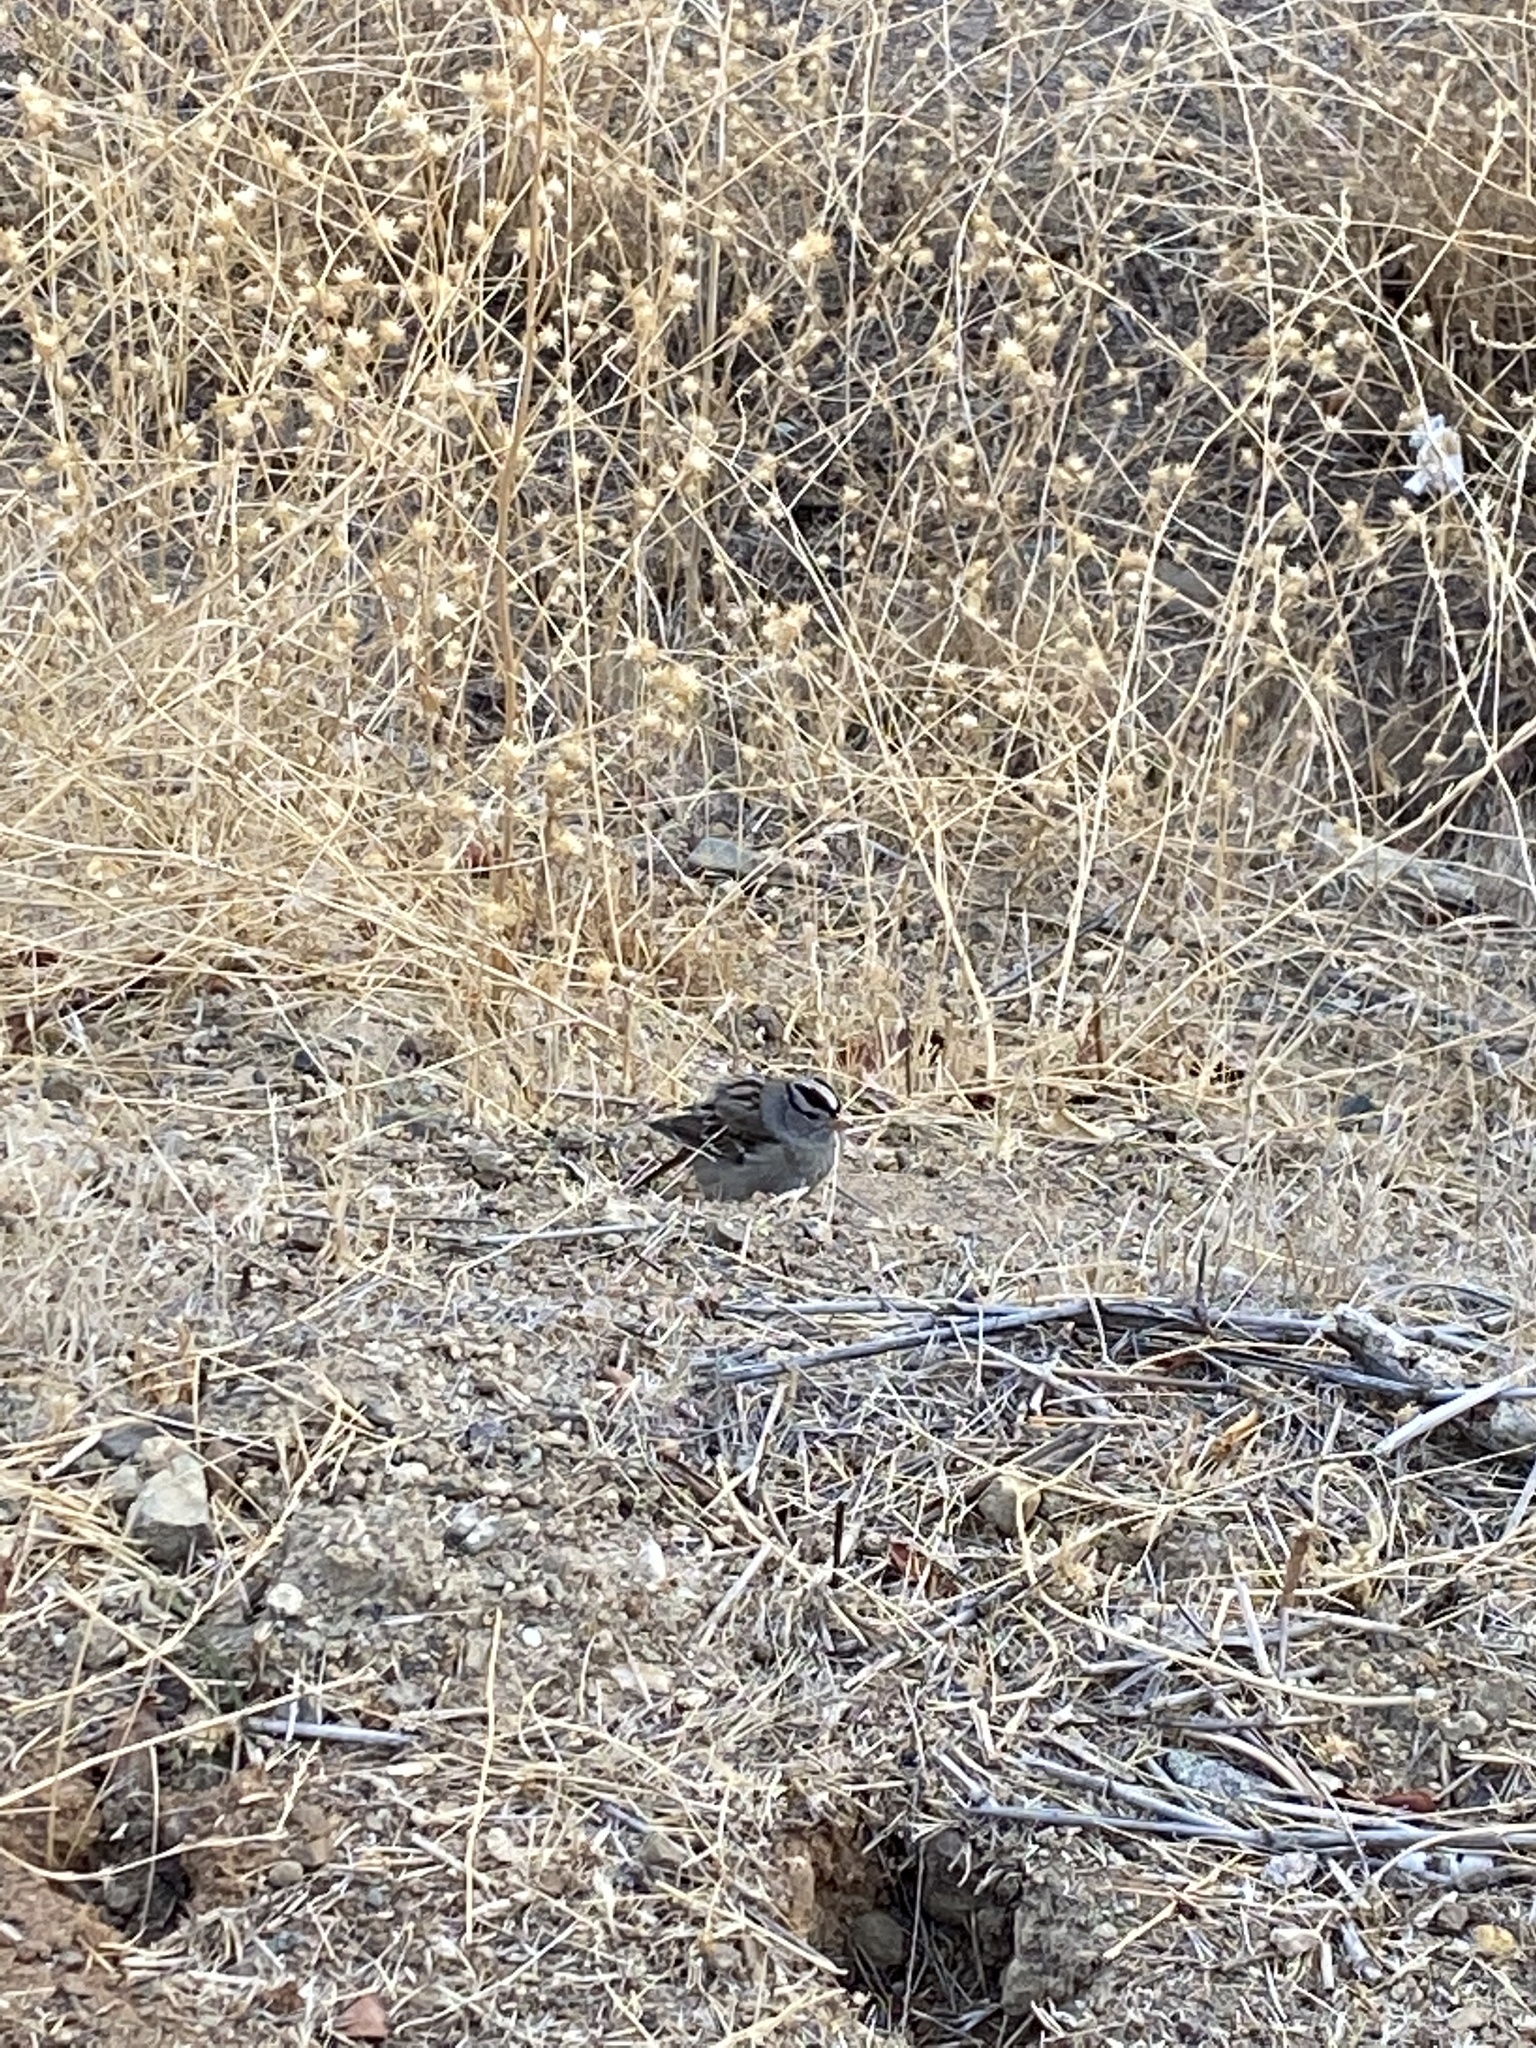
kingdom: Animalia
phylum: Chordata
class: Aves
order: Passeriformes
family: Passerellidae
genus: Zonotrichia
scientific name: Zonotrichia leucophrys
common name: White-crowned sparrow
